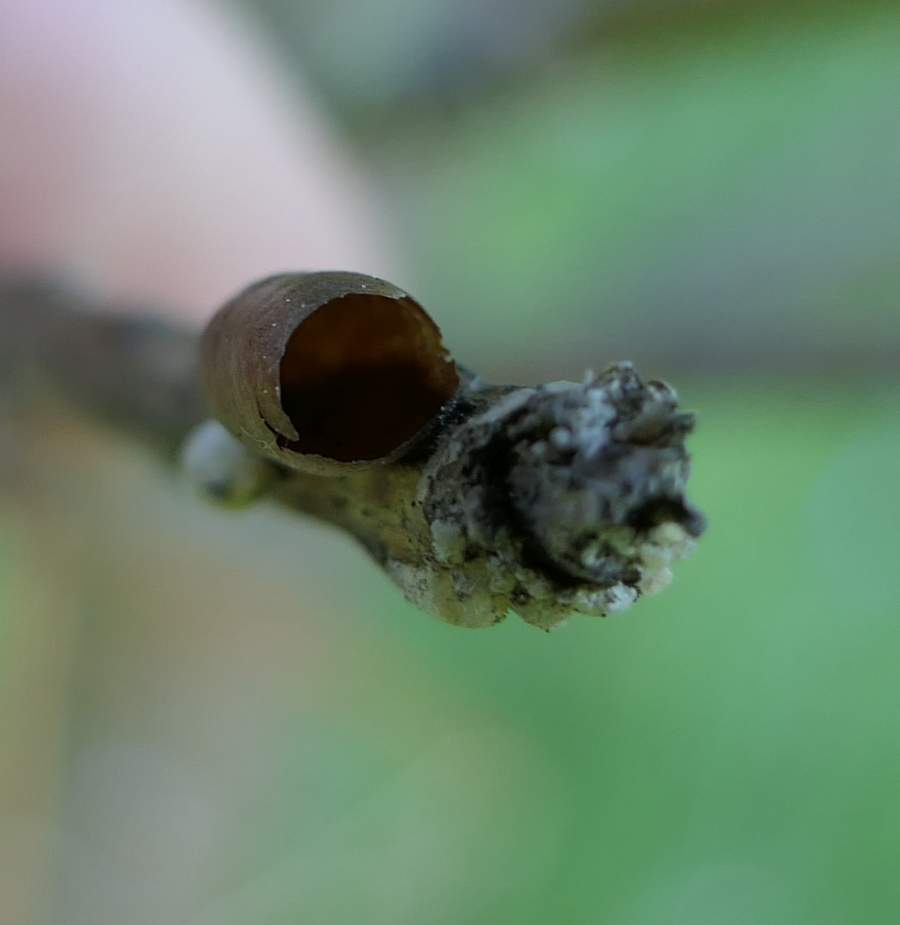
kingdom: Animalia
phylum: Arthropoda
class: Insecta
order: Hymenoptera
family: Diprionidae
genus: Diprion
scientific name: Diprion similis
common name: Pine sawfly
